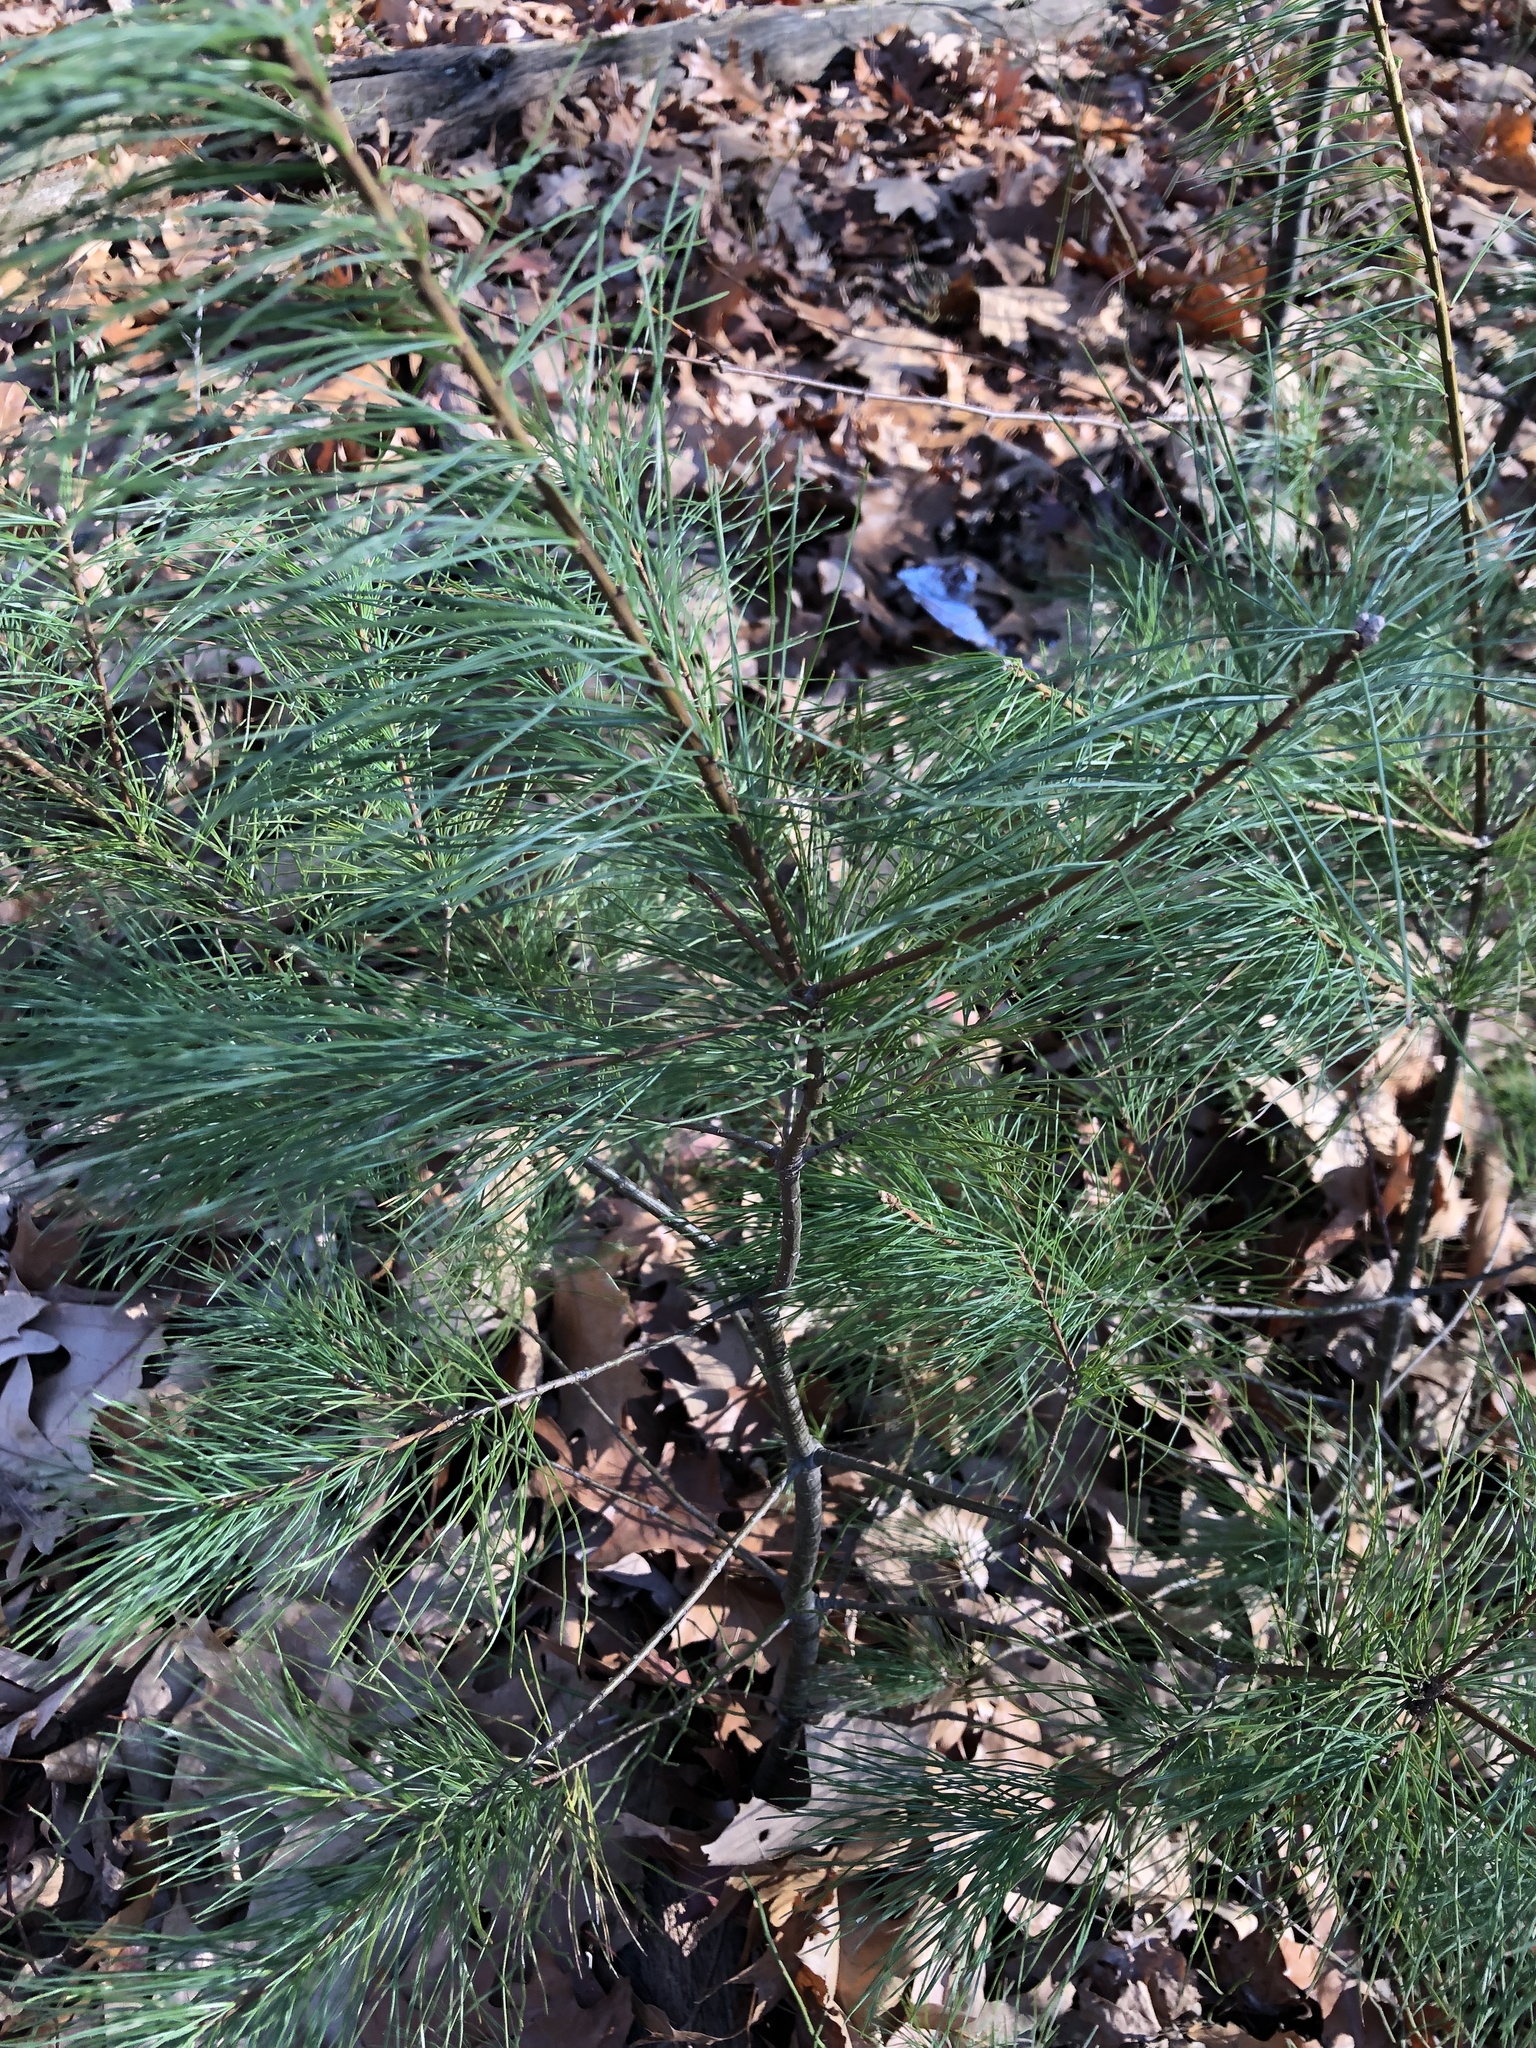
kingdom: Plantae
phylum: Tracheophyta
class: Pinopsida
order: Pinales
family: Pinaceae
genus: Pinus
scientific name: Pinus strobus
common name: Weymouth pine
